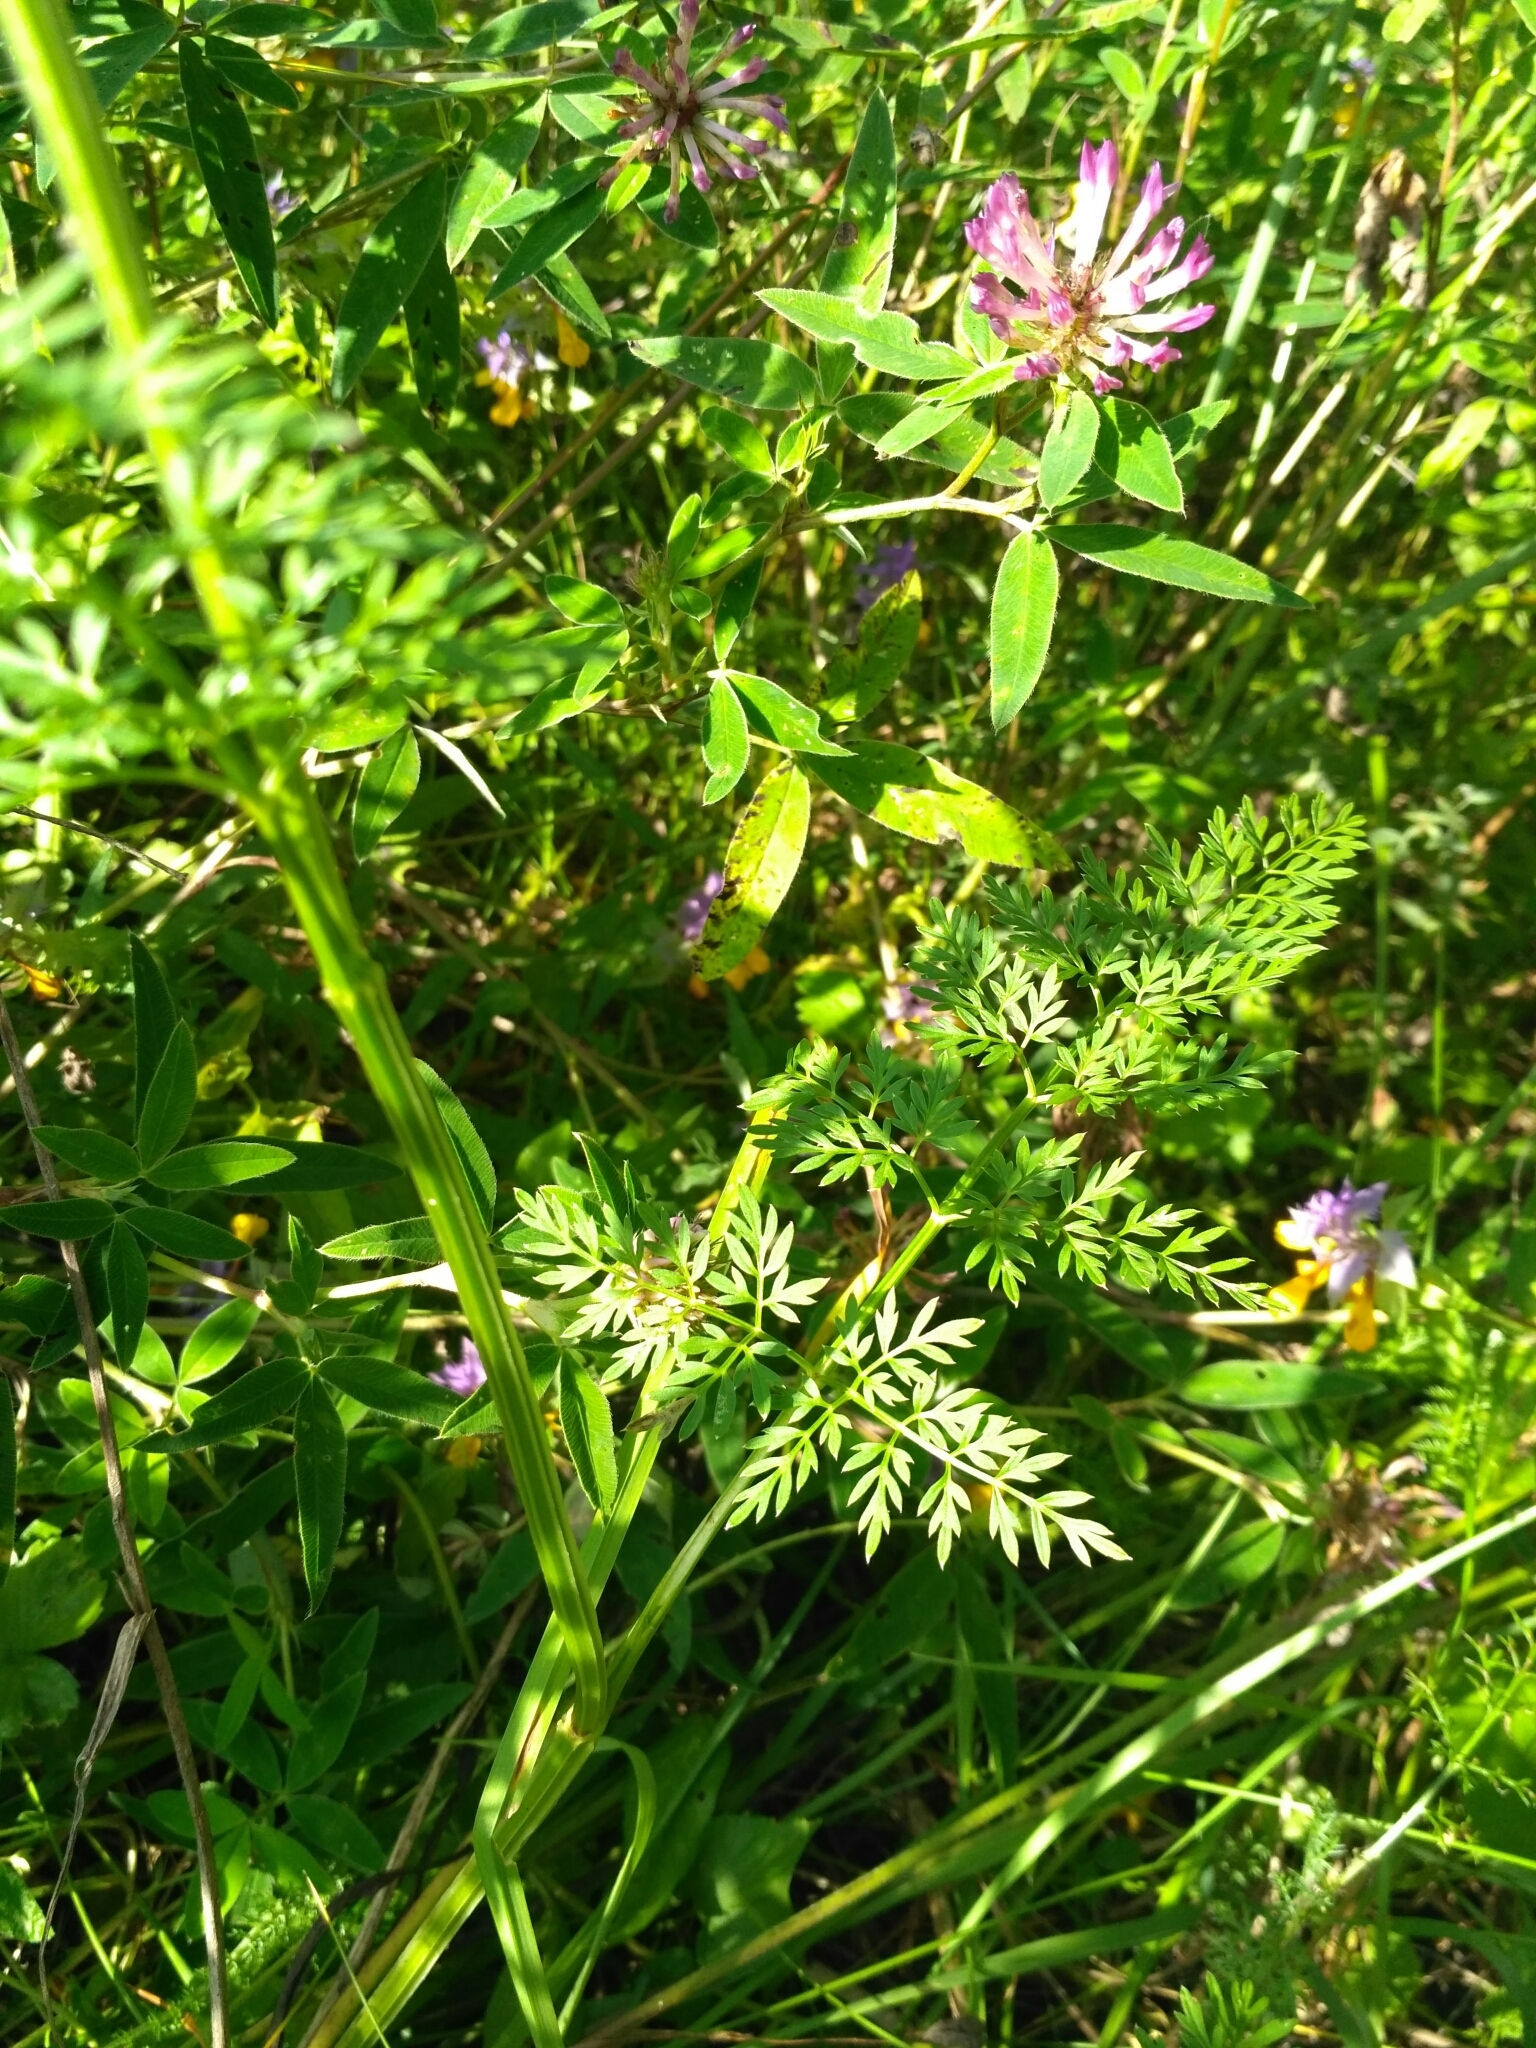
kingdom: Plantae
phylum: Tracheophyta
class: Magnoliopsida
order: Apiales
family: Apiaceae
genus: Selinum
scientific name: Selinum carvifolia
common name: Cambridge milk-parsley
